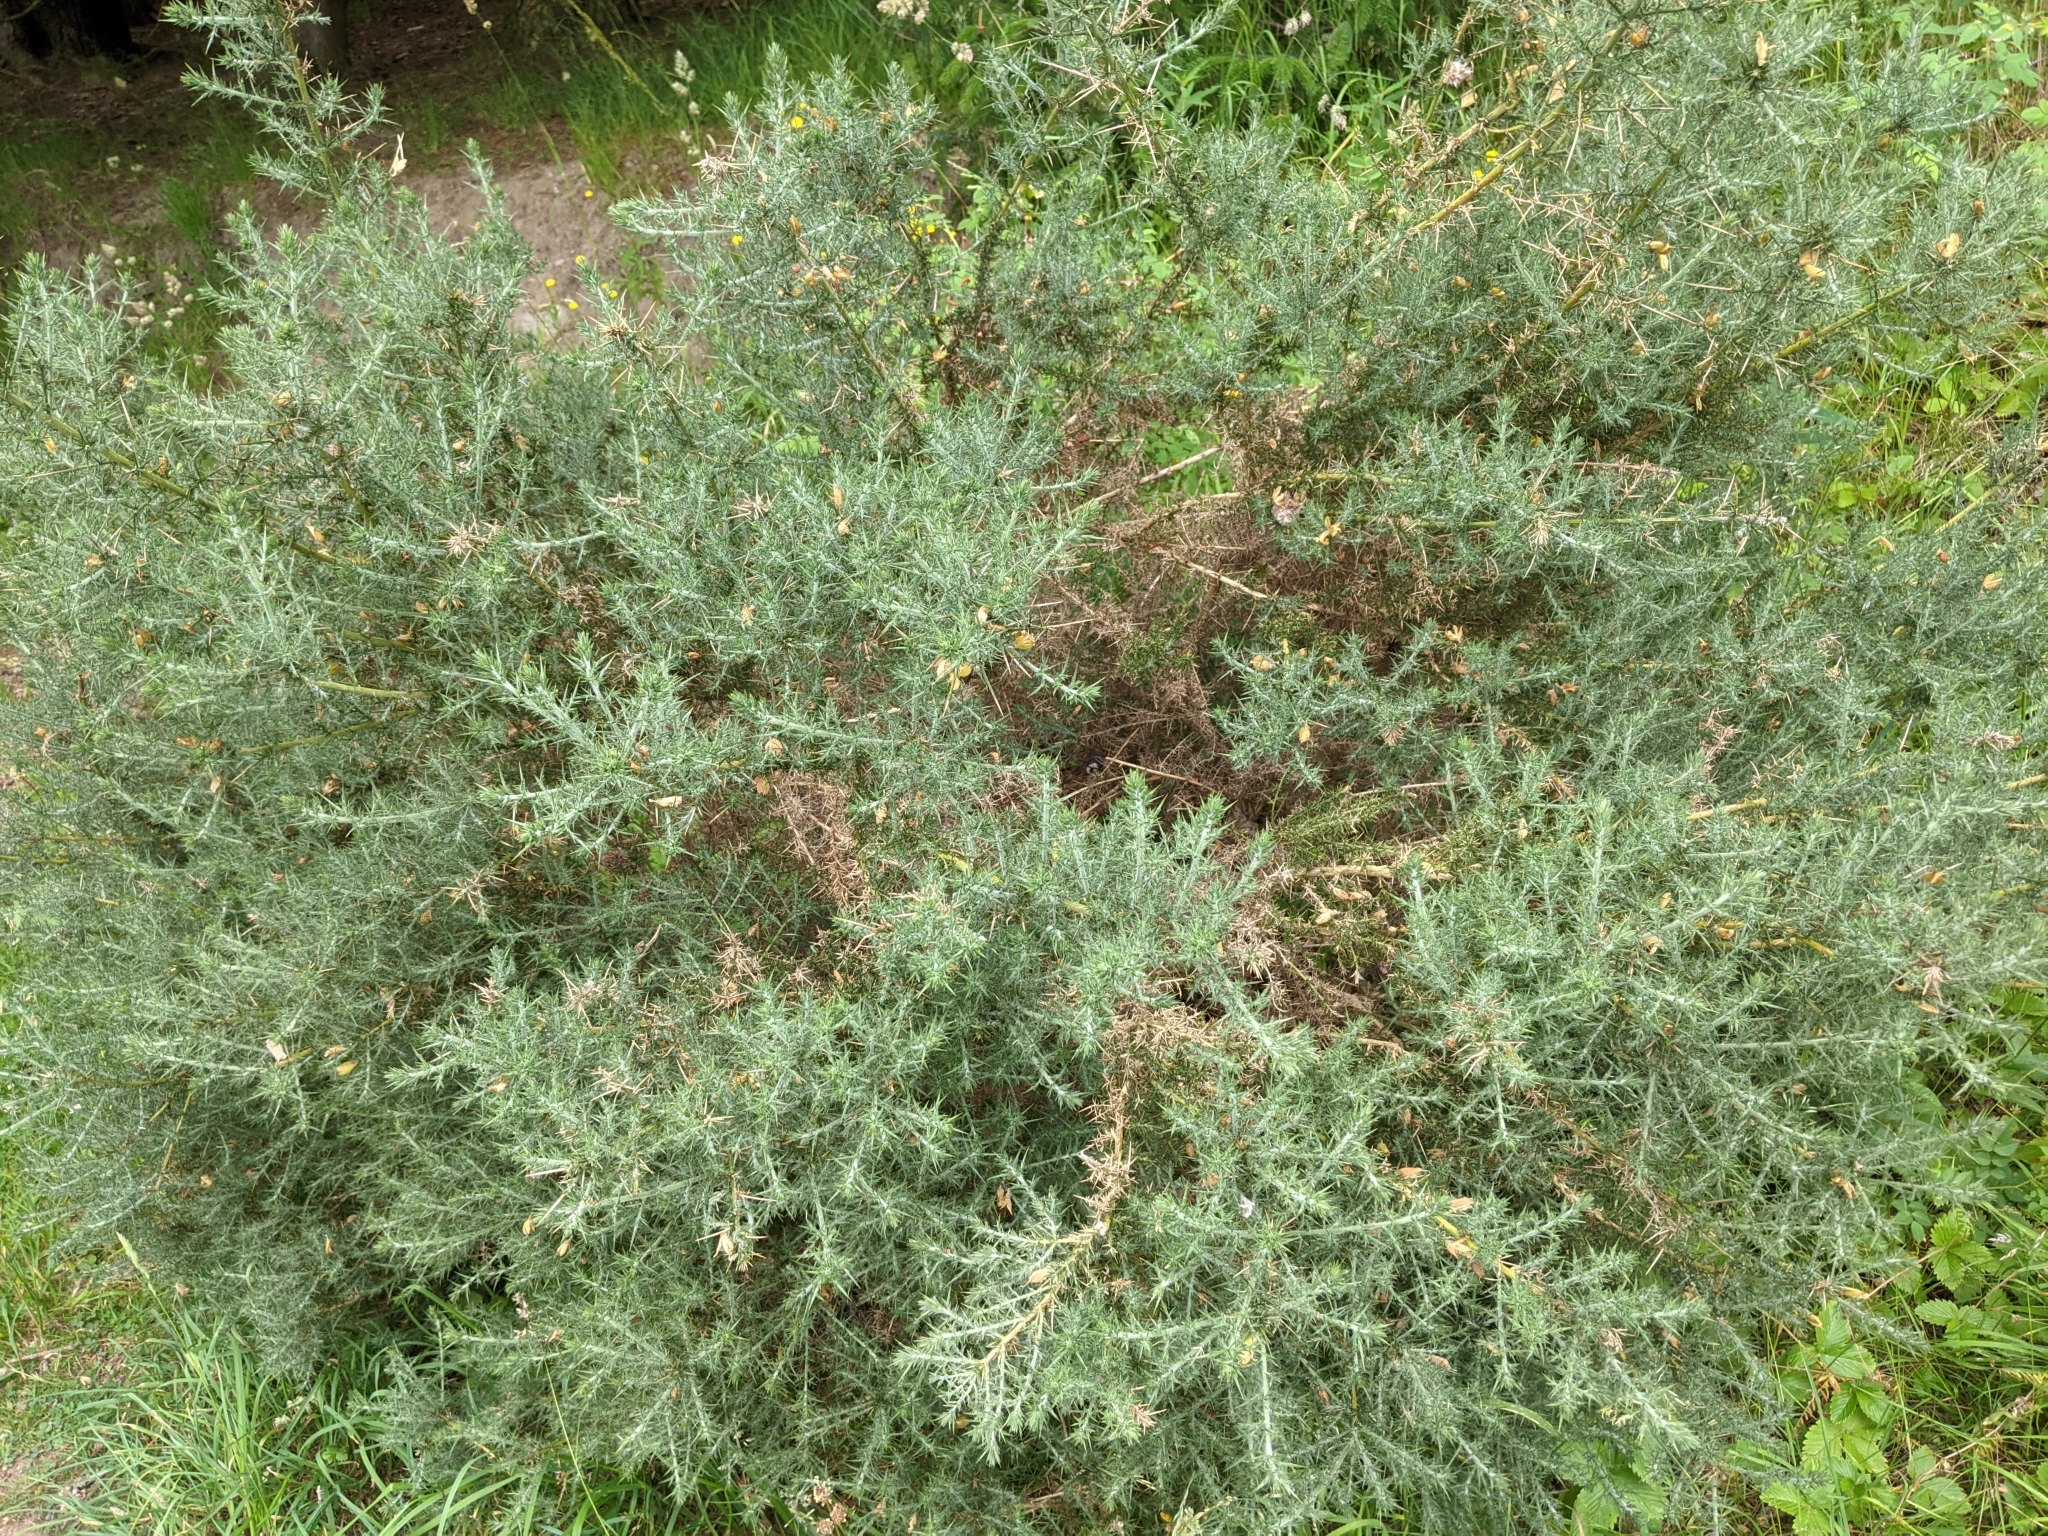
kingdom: Plantae
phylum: Tracheophyta
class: Magnoliopsida
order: Fabales
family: Fabaceae
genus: Ulex
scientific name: Ulex europaeus
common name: Common gorse
